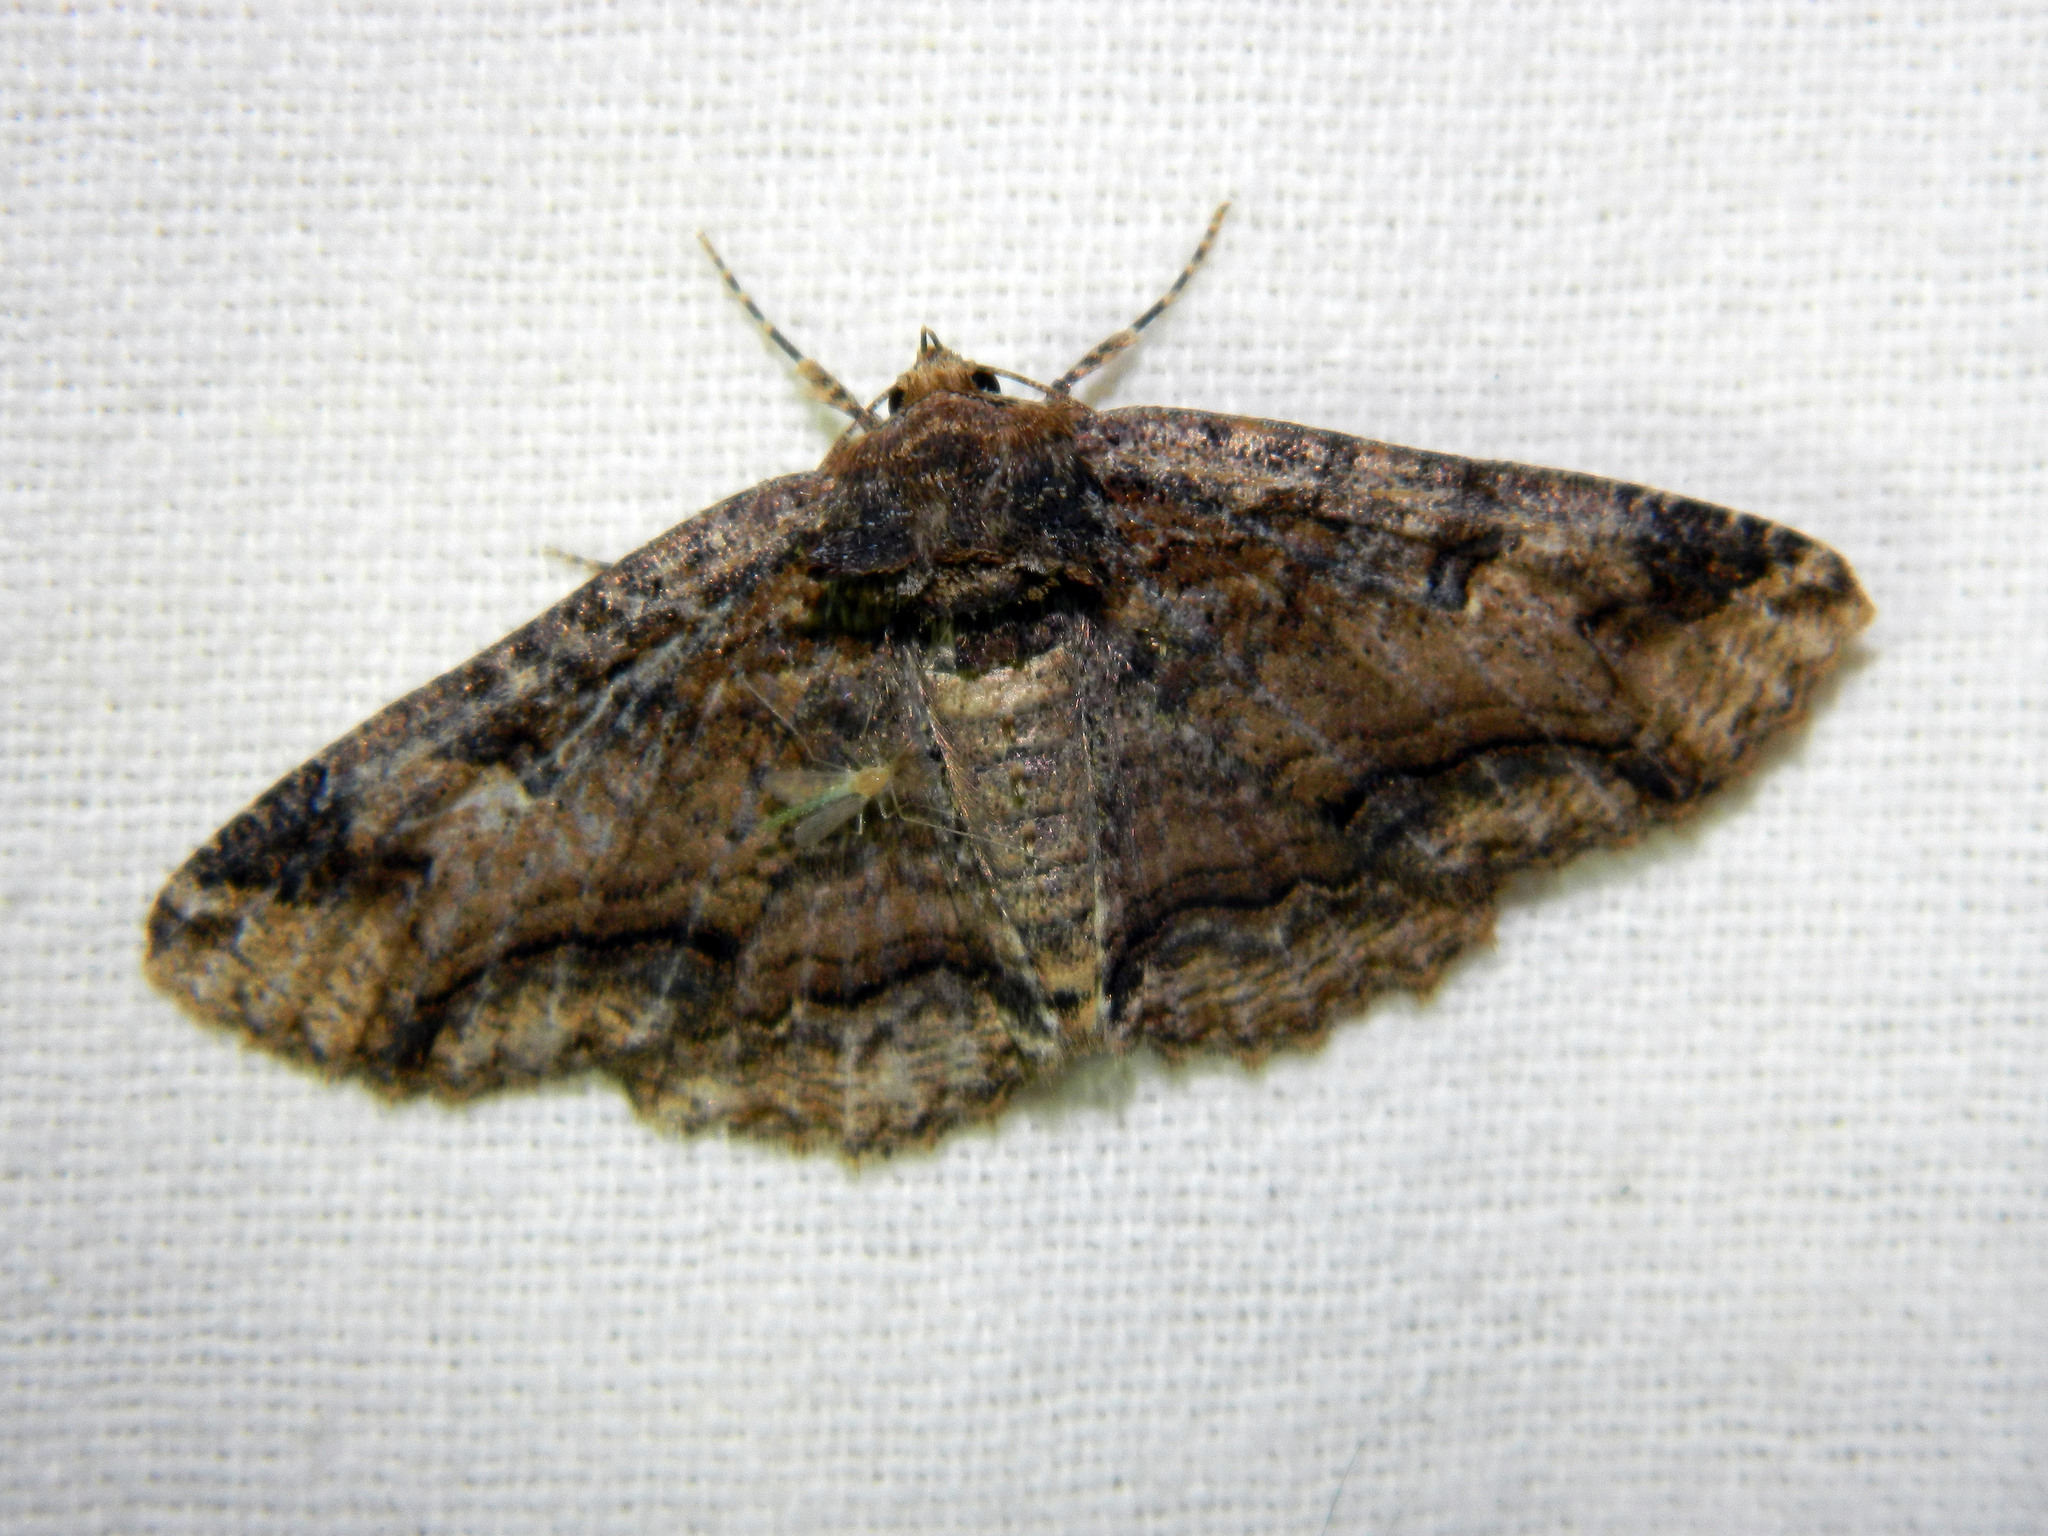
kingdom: Animalia
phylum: Arthropoda
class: Insecta
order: Lepidoptera
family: Erebidae
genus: Zale
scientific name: Zale minerea
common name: Colorful zale moth
